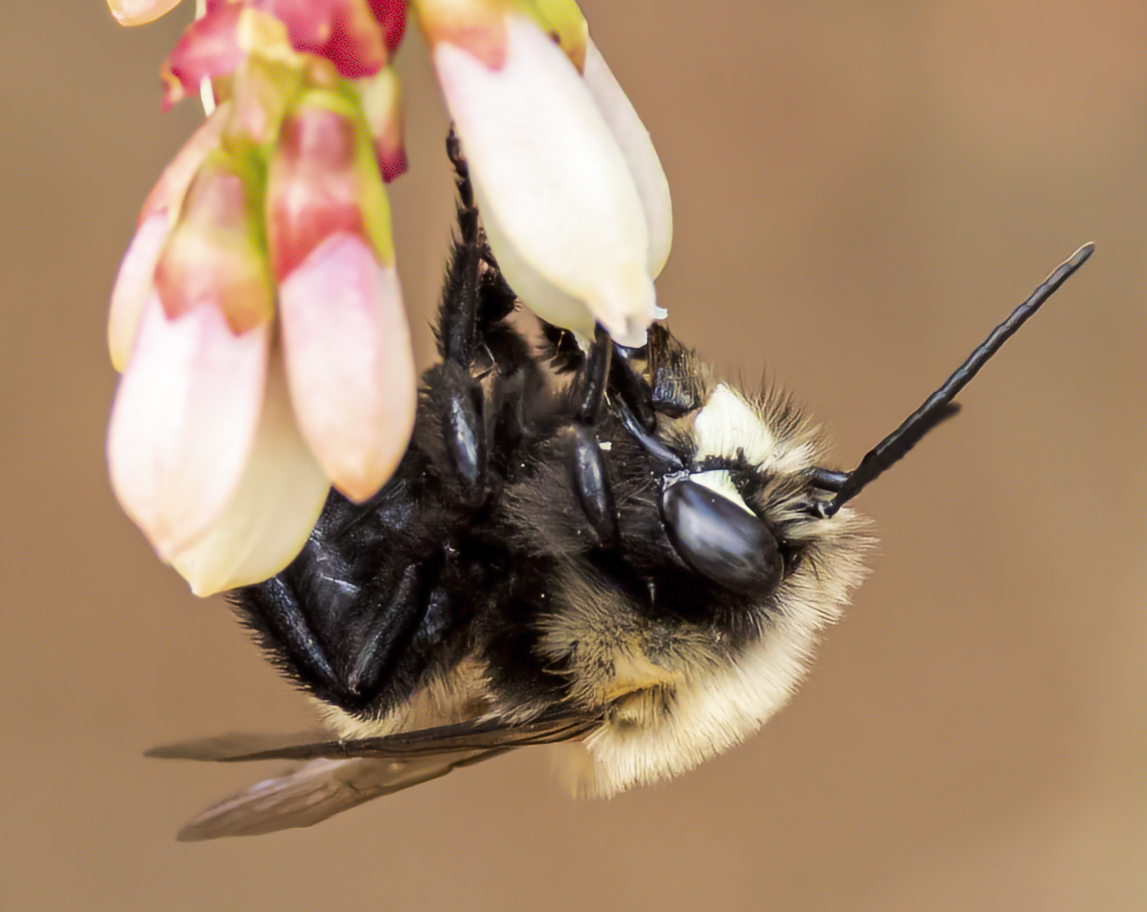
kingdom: Animalia
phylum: Arthropoda
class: Insecta
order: Hymenoptera
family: Apidae
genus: Habropoda
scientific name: Habropoda laboriosa
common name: Southeastern blueberry bee
